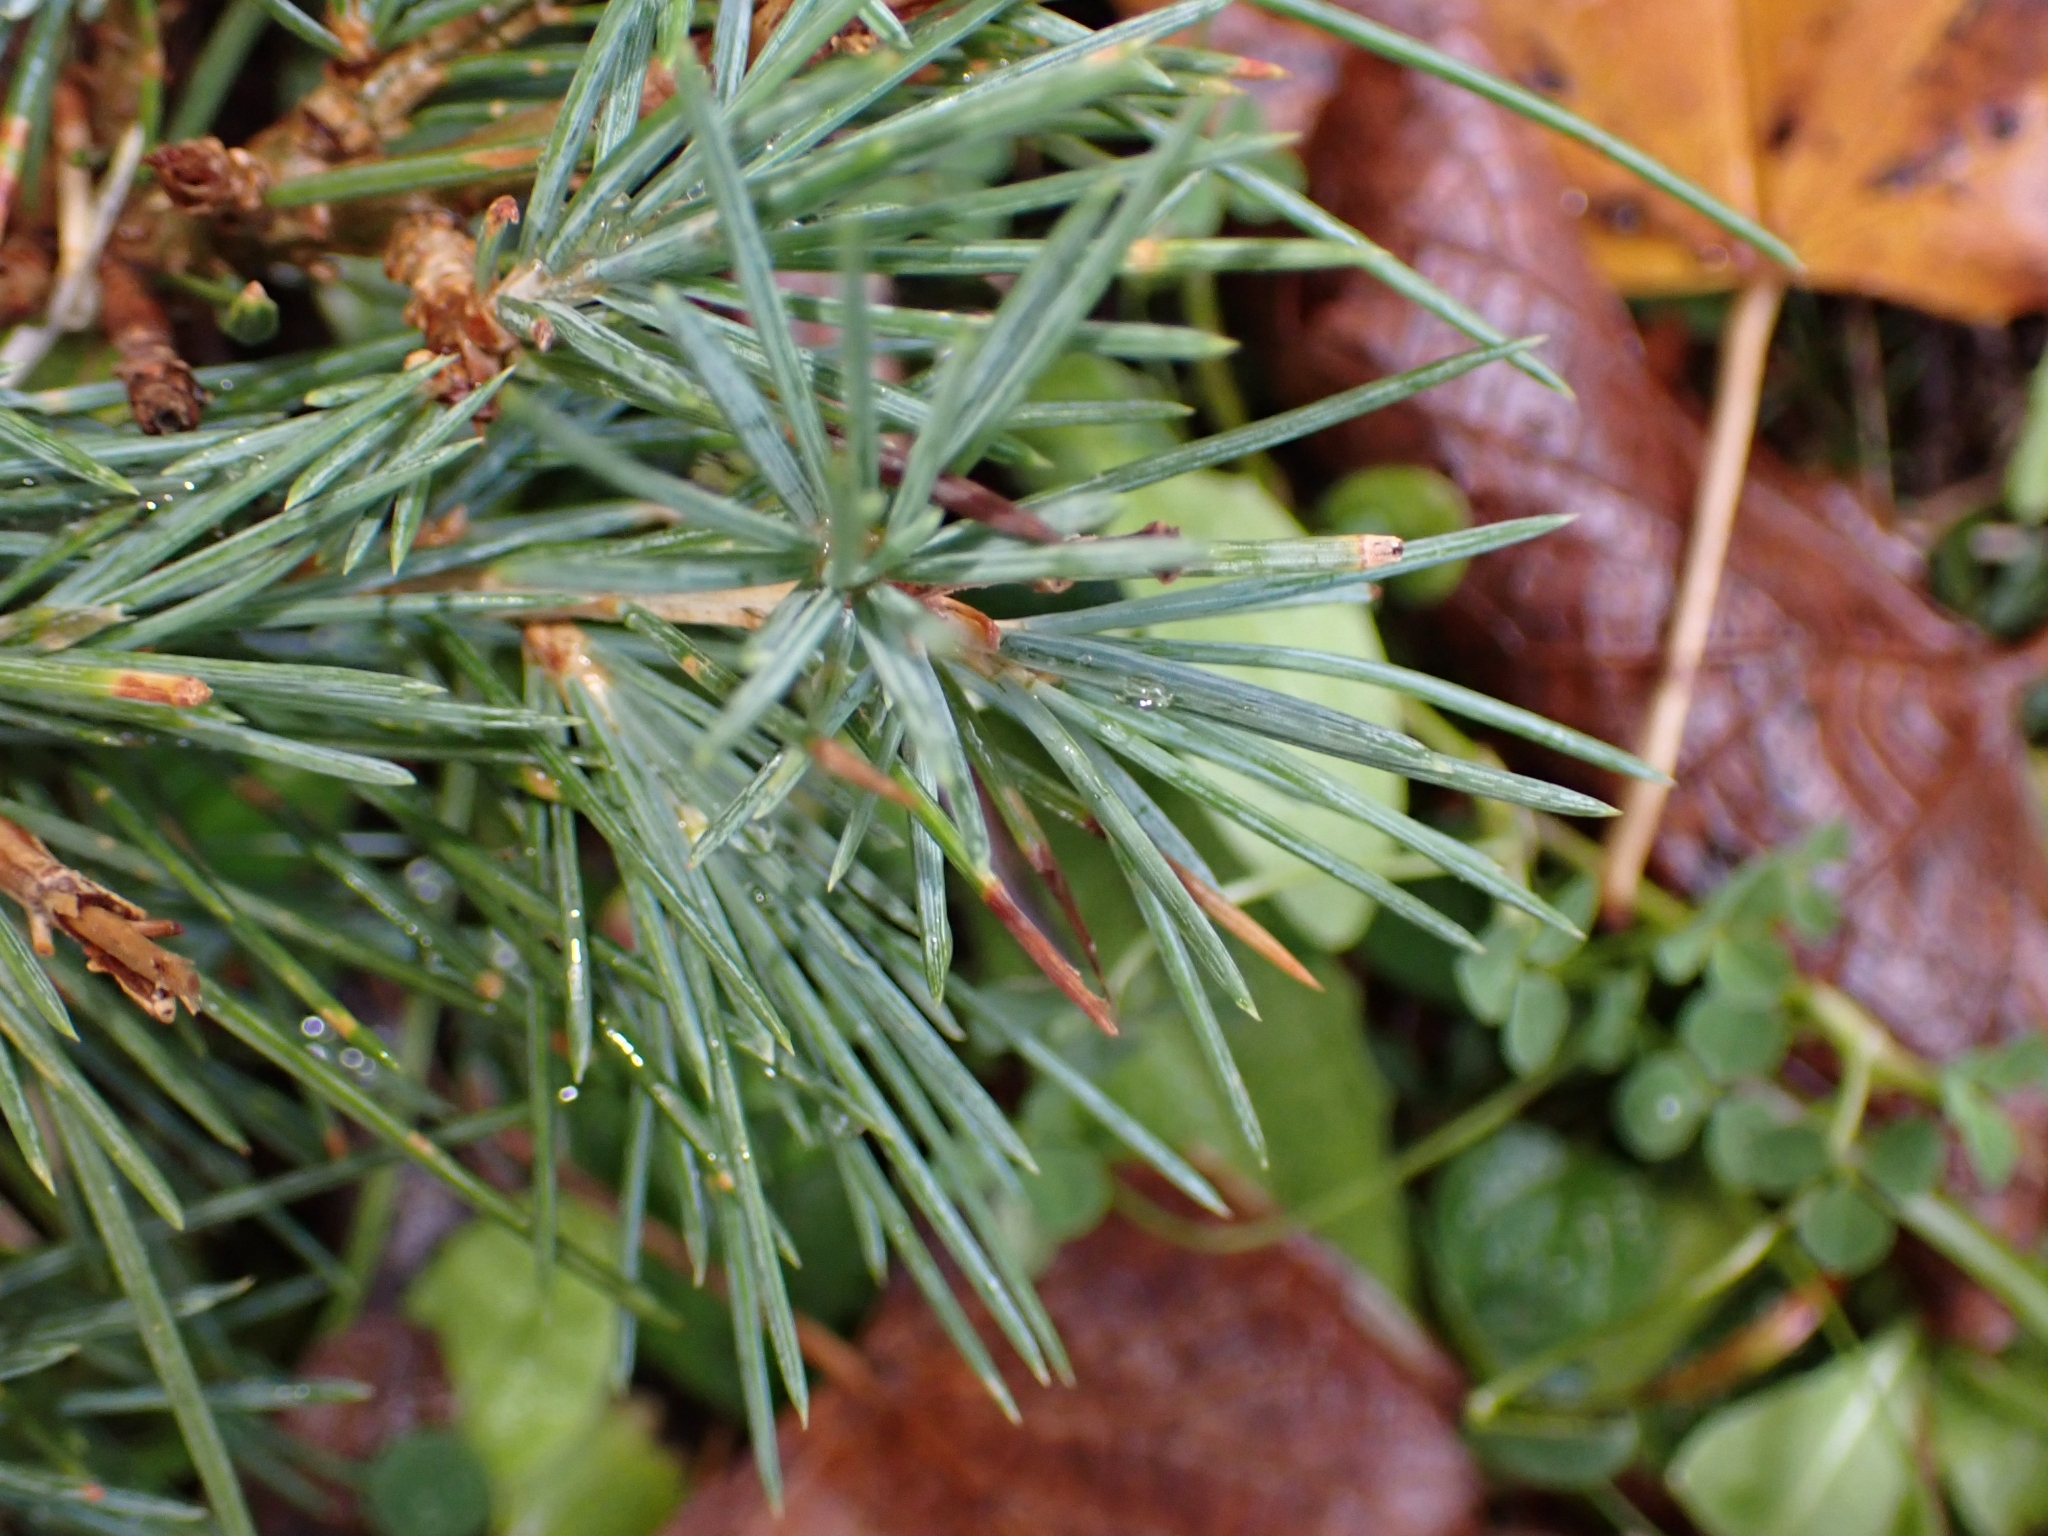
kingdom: Plantae
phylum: Tracheophyta
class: Pinopsida
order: Pinales
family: Pinaceae
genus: Cedrus
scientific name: Cedrus atlantica
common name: Atlas cedar
